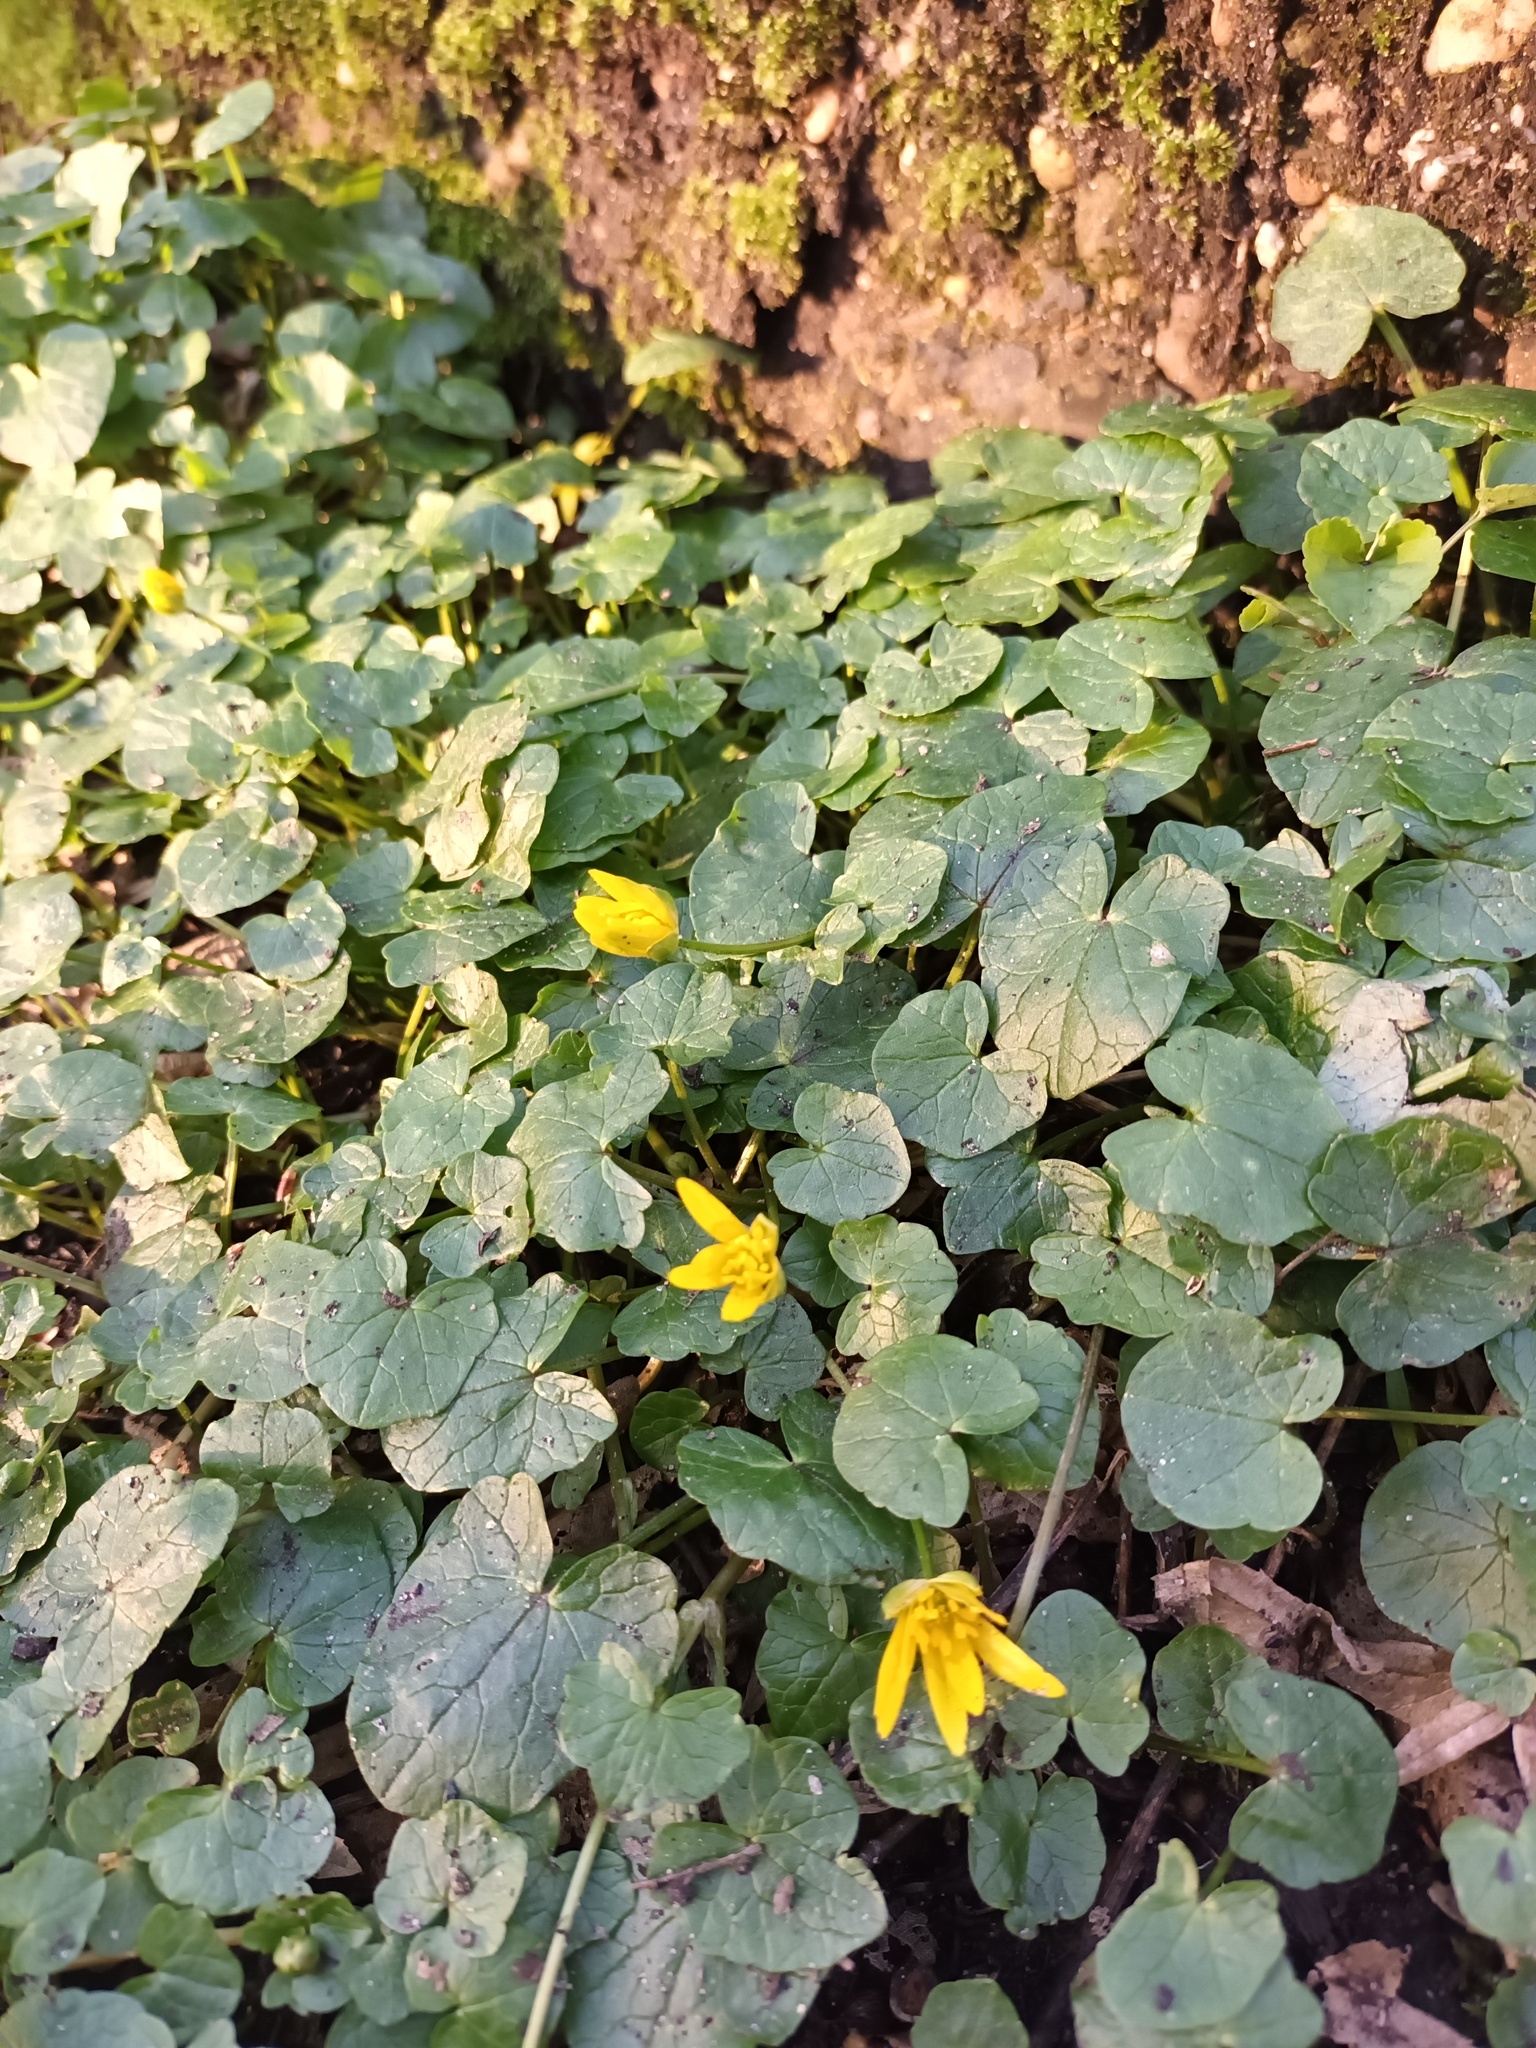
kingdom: Plantae
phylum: Tracheophyta
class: Magnoliopsida
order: Ranunculales
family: Ranunculaceae
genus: Ficaria
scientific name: Ficaria verna
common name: Lesser celandine
